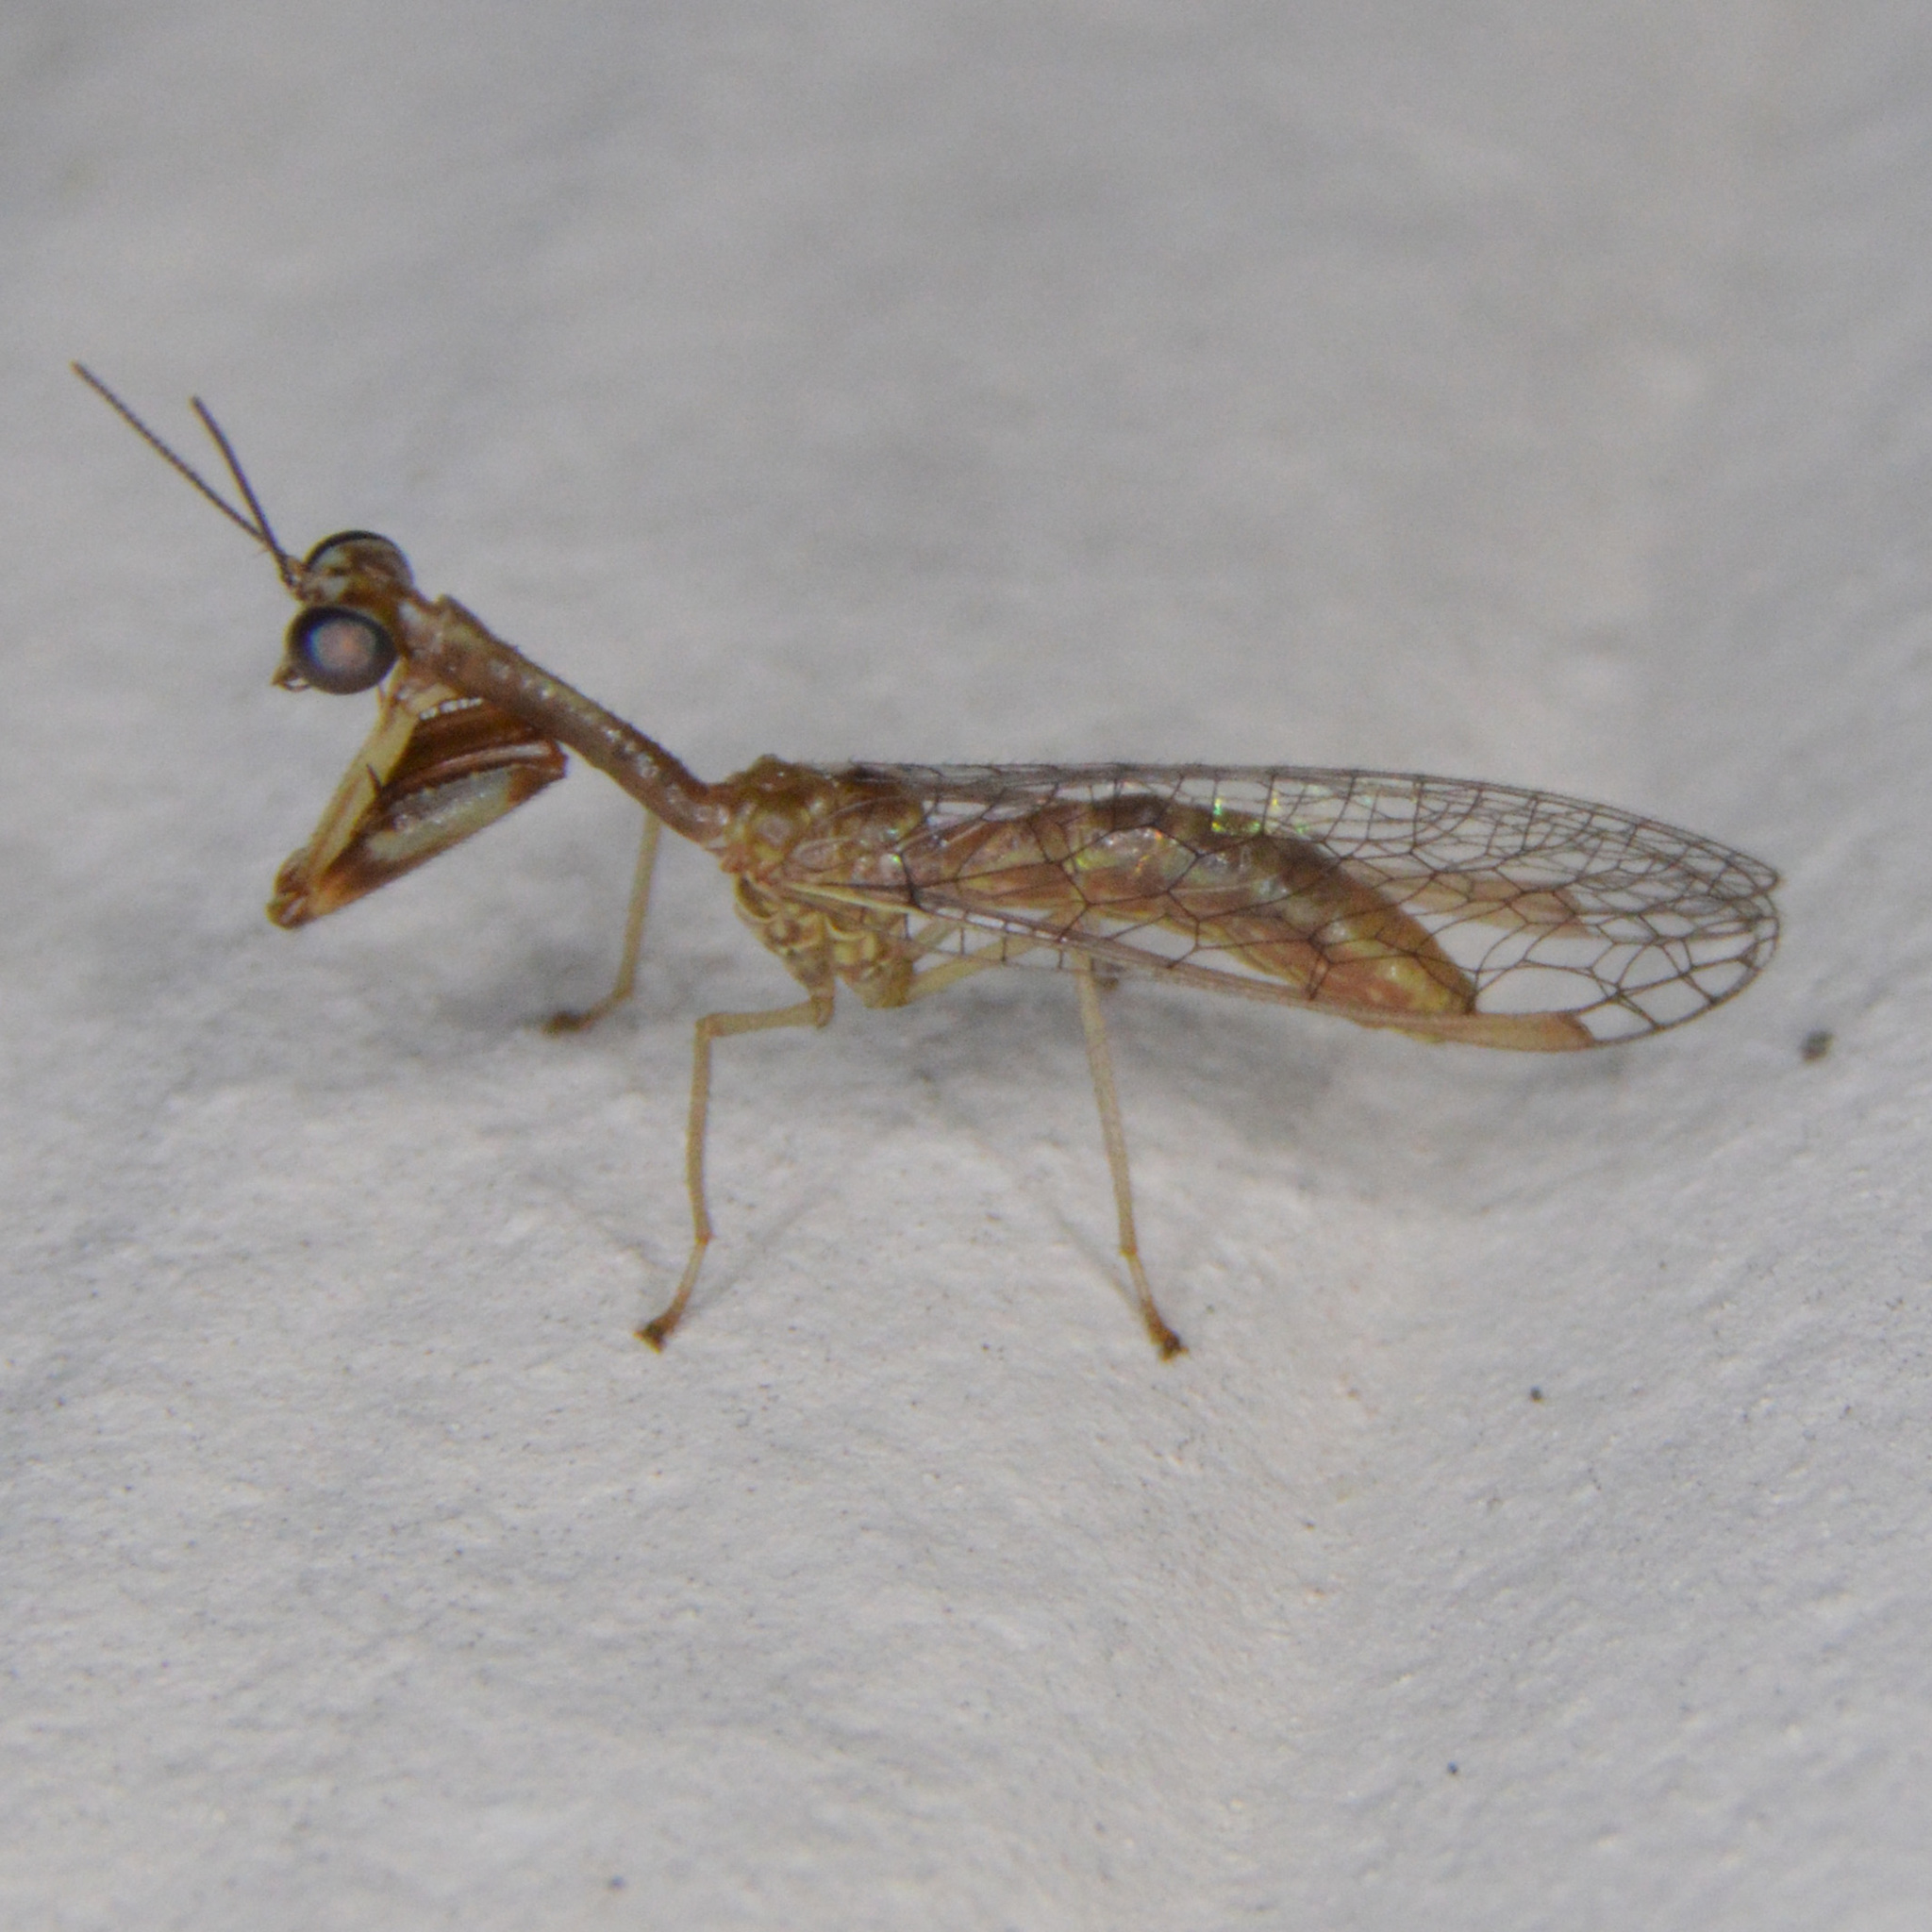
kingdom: Animalia
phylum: Arthropoda
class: Insecta
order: Neuroptera
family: Mantispidae
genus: Leptomantispa
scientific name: Leptomantispa pulchella
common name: Stevens's mantidfly
